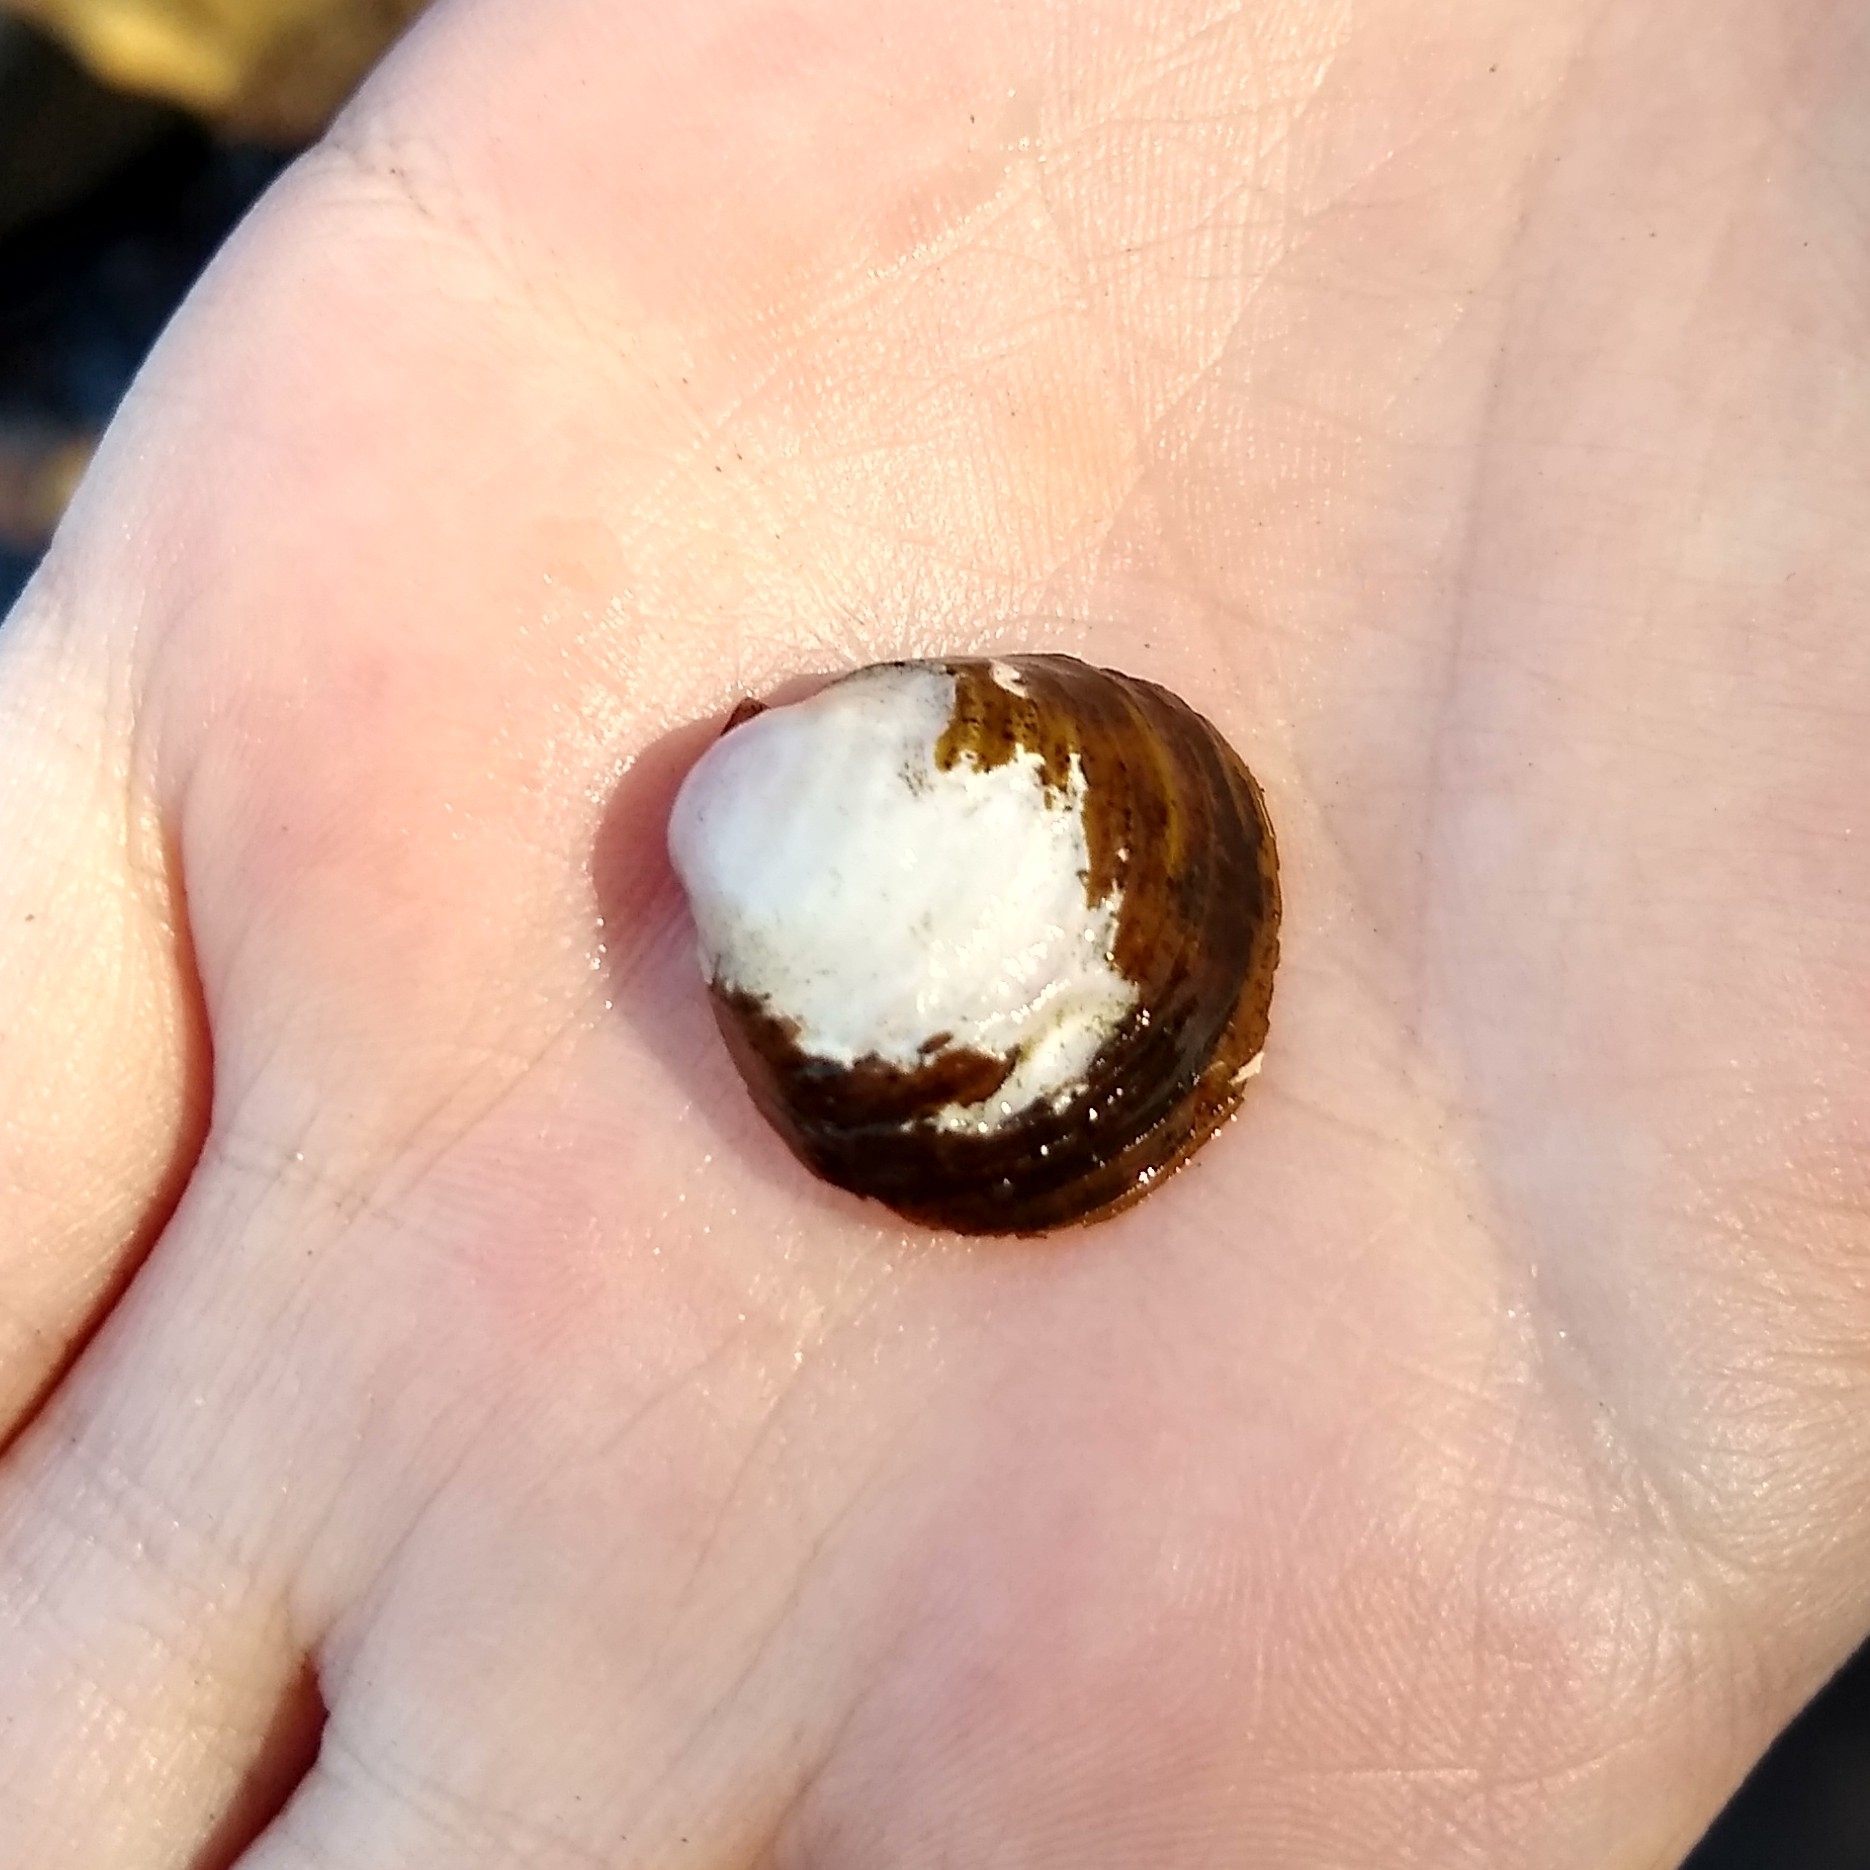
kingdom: Animalia
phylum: Mollusca
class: Bivalvia
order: Venerida
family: Cyrenidae
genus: Corbicula
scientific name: Corbicula fluminea
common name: Asian clam
